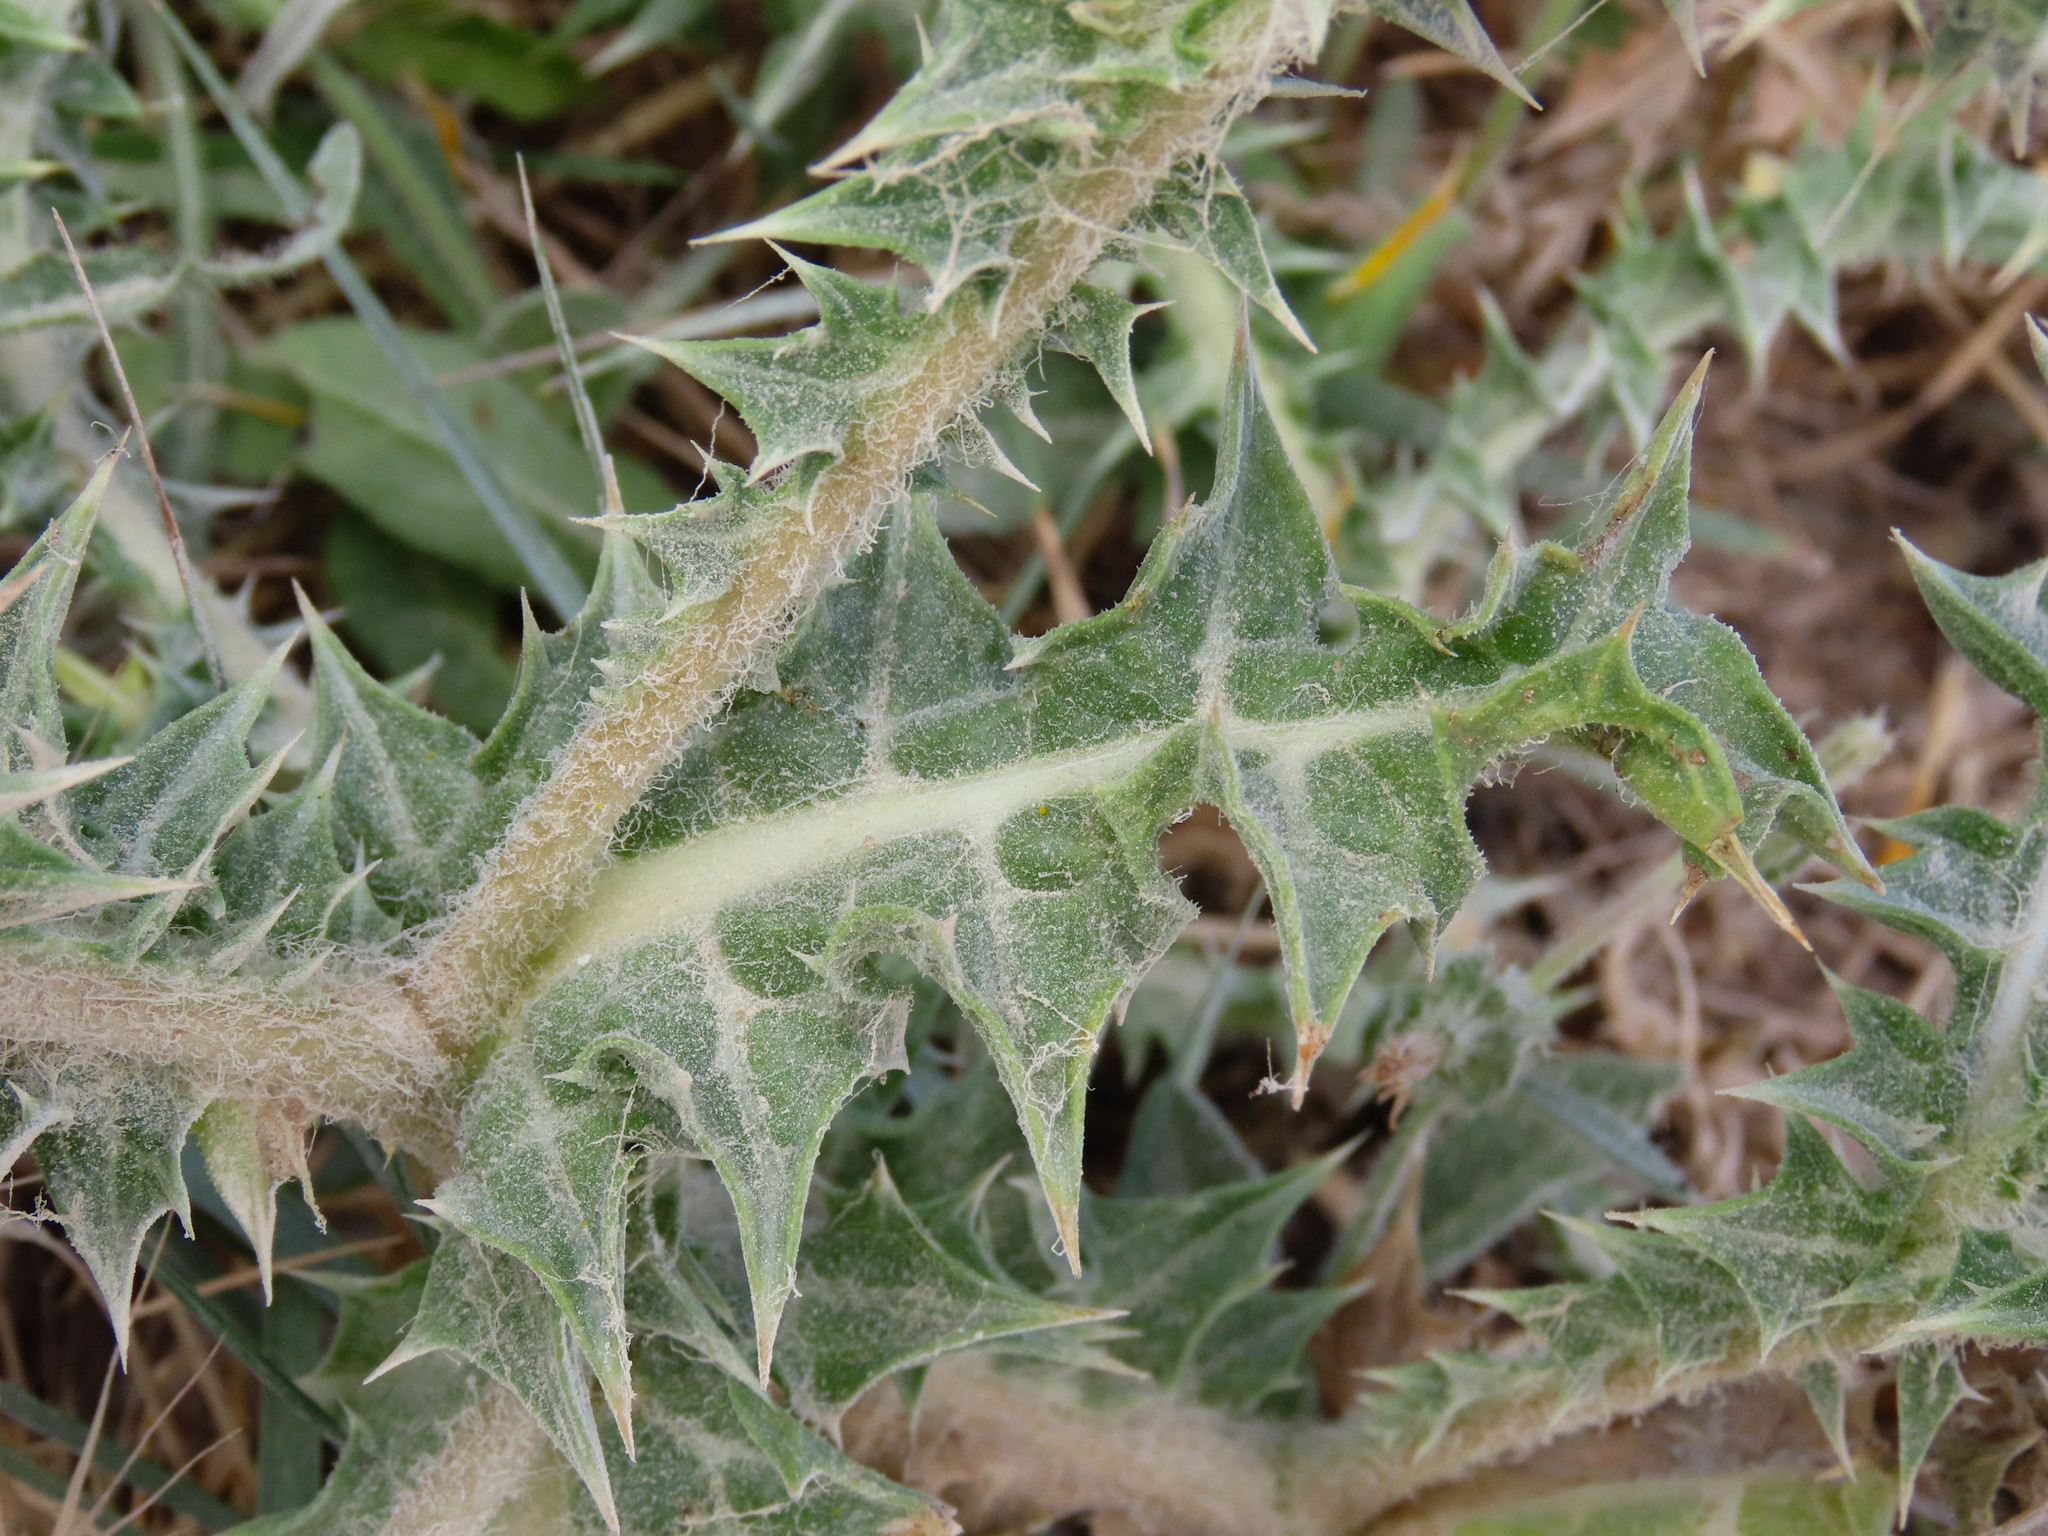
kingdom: Plantae
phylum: Tracheophyta
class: Magnoliopsida
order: Asterales
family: Asteraceae
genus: Scolymus
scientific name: Scolymus hispanicus
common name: Golden thistle
